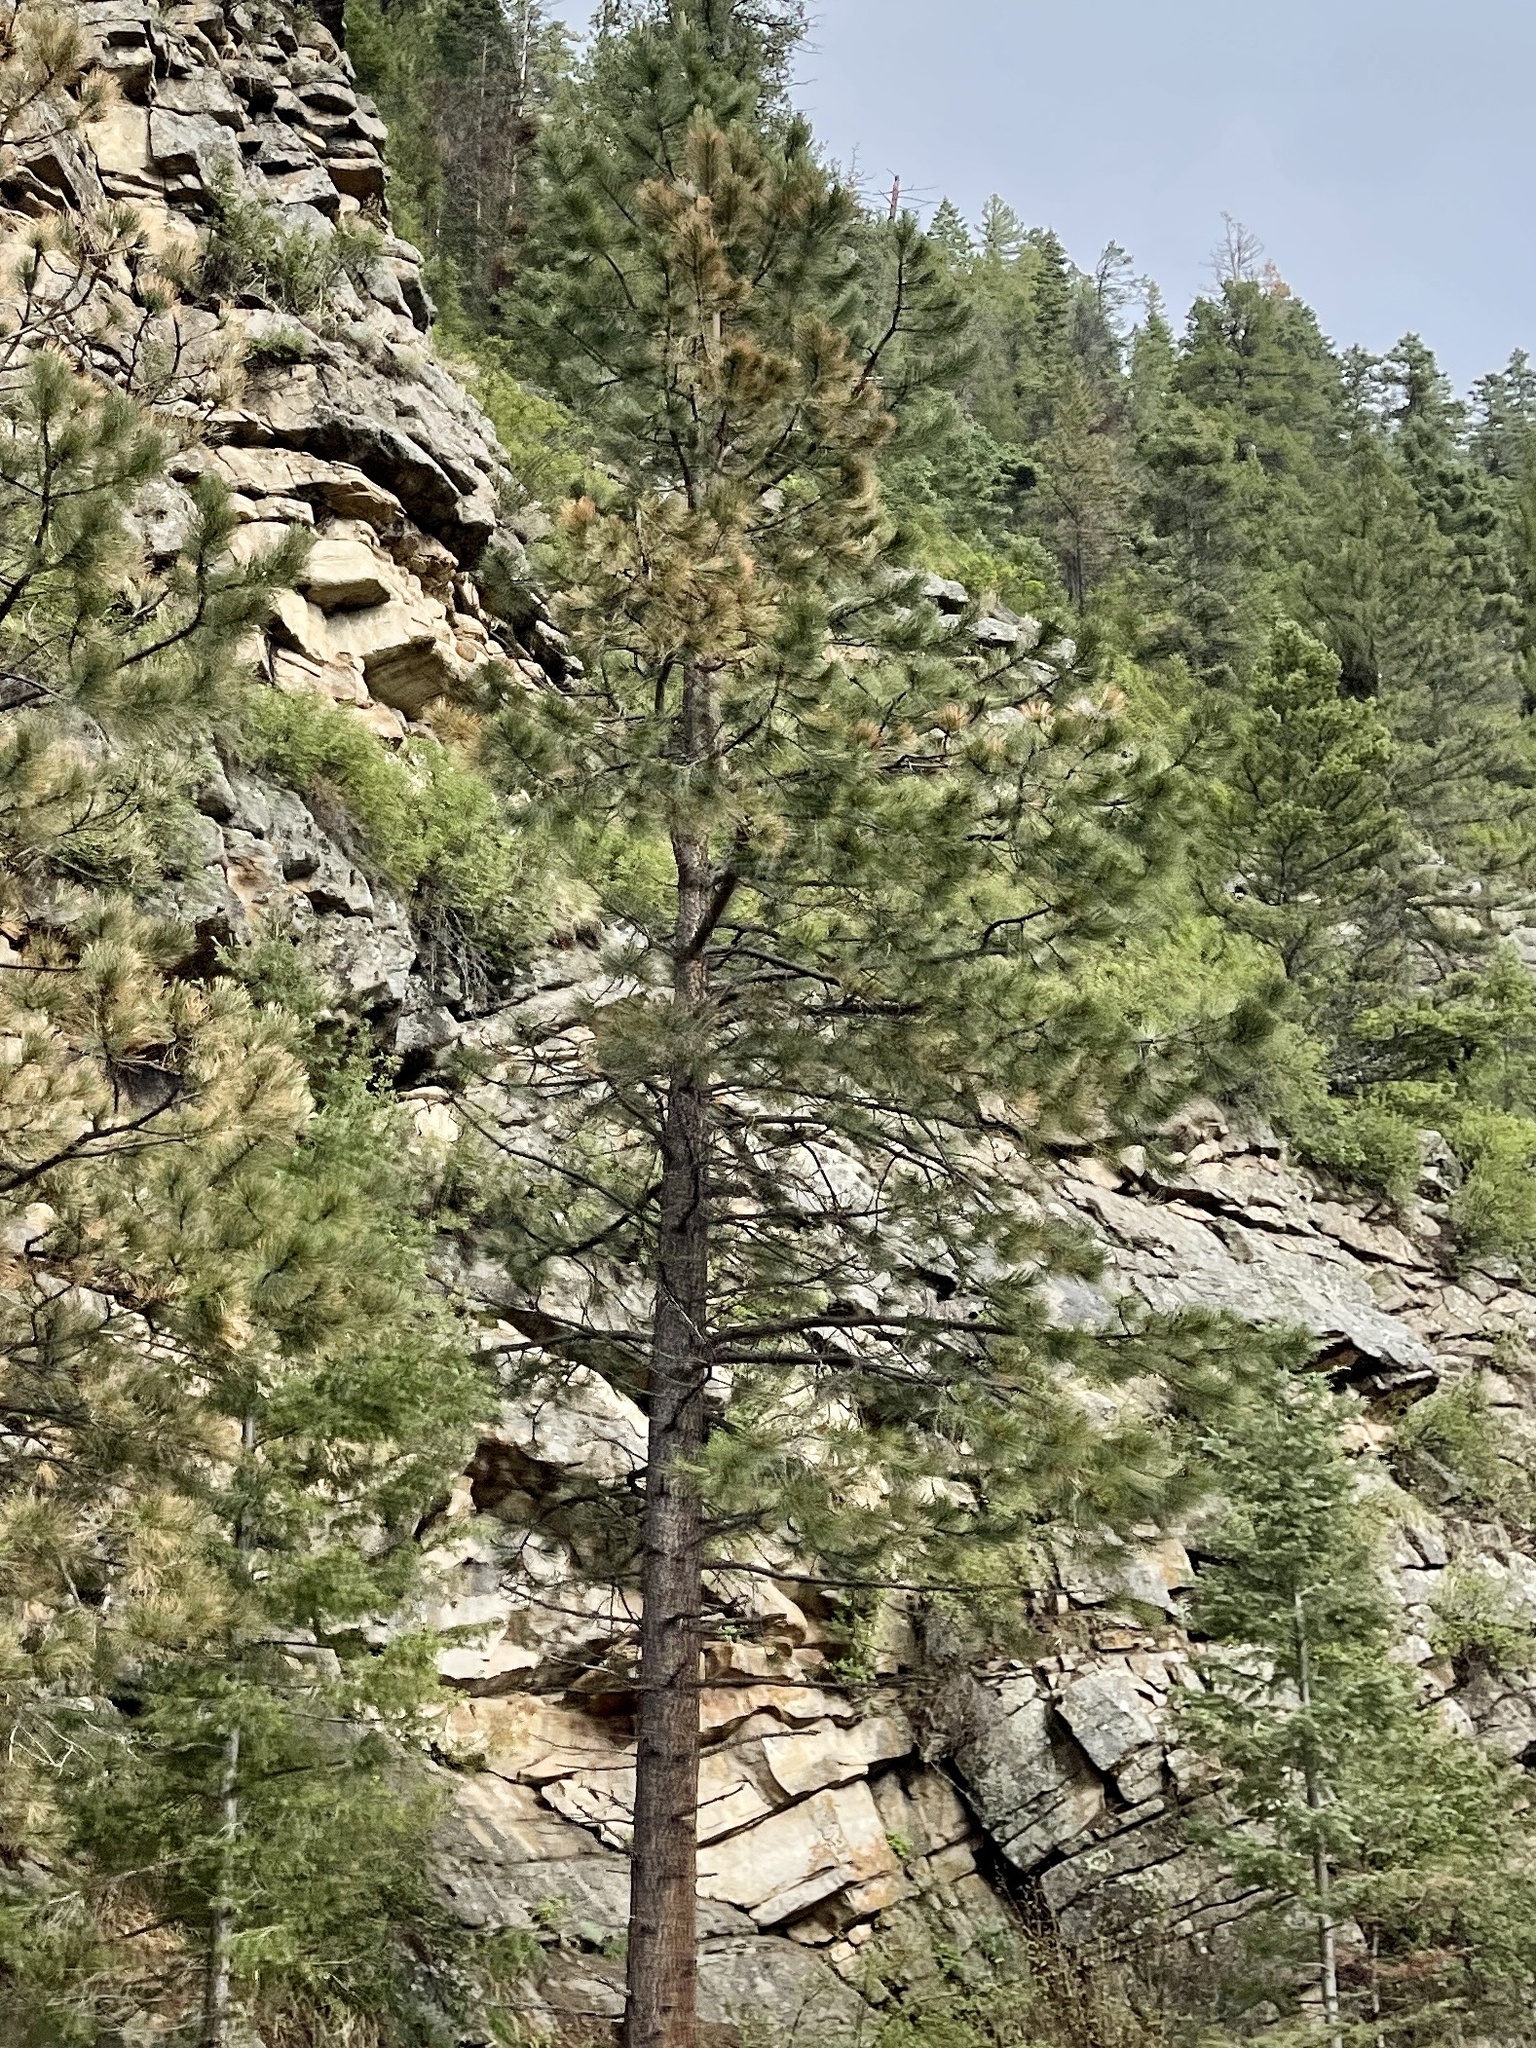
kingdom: Plantae
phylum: Tracheophyta
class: Pinopsida
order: Pinales
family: Pinaceae
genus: Pinus
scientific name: Pinus ponderosa
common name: Western yellow-pine
